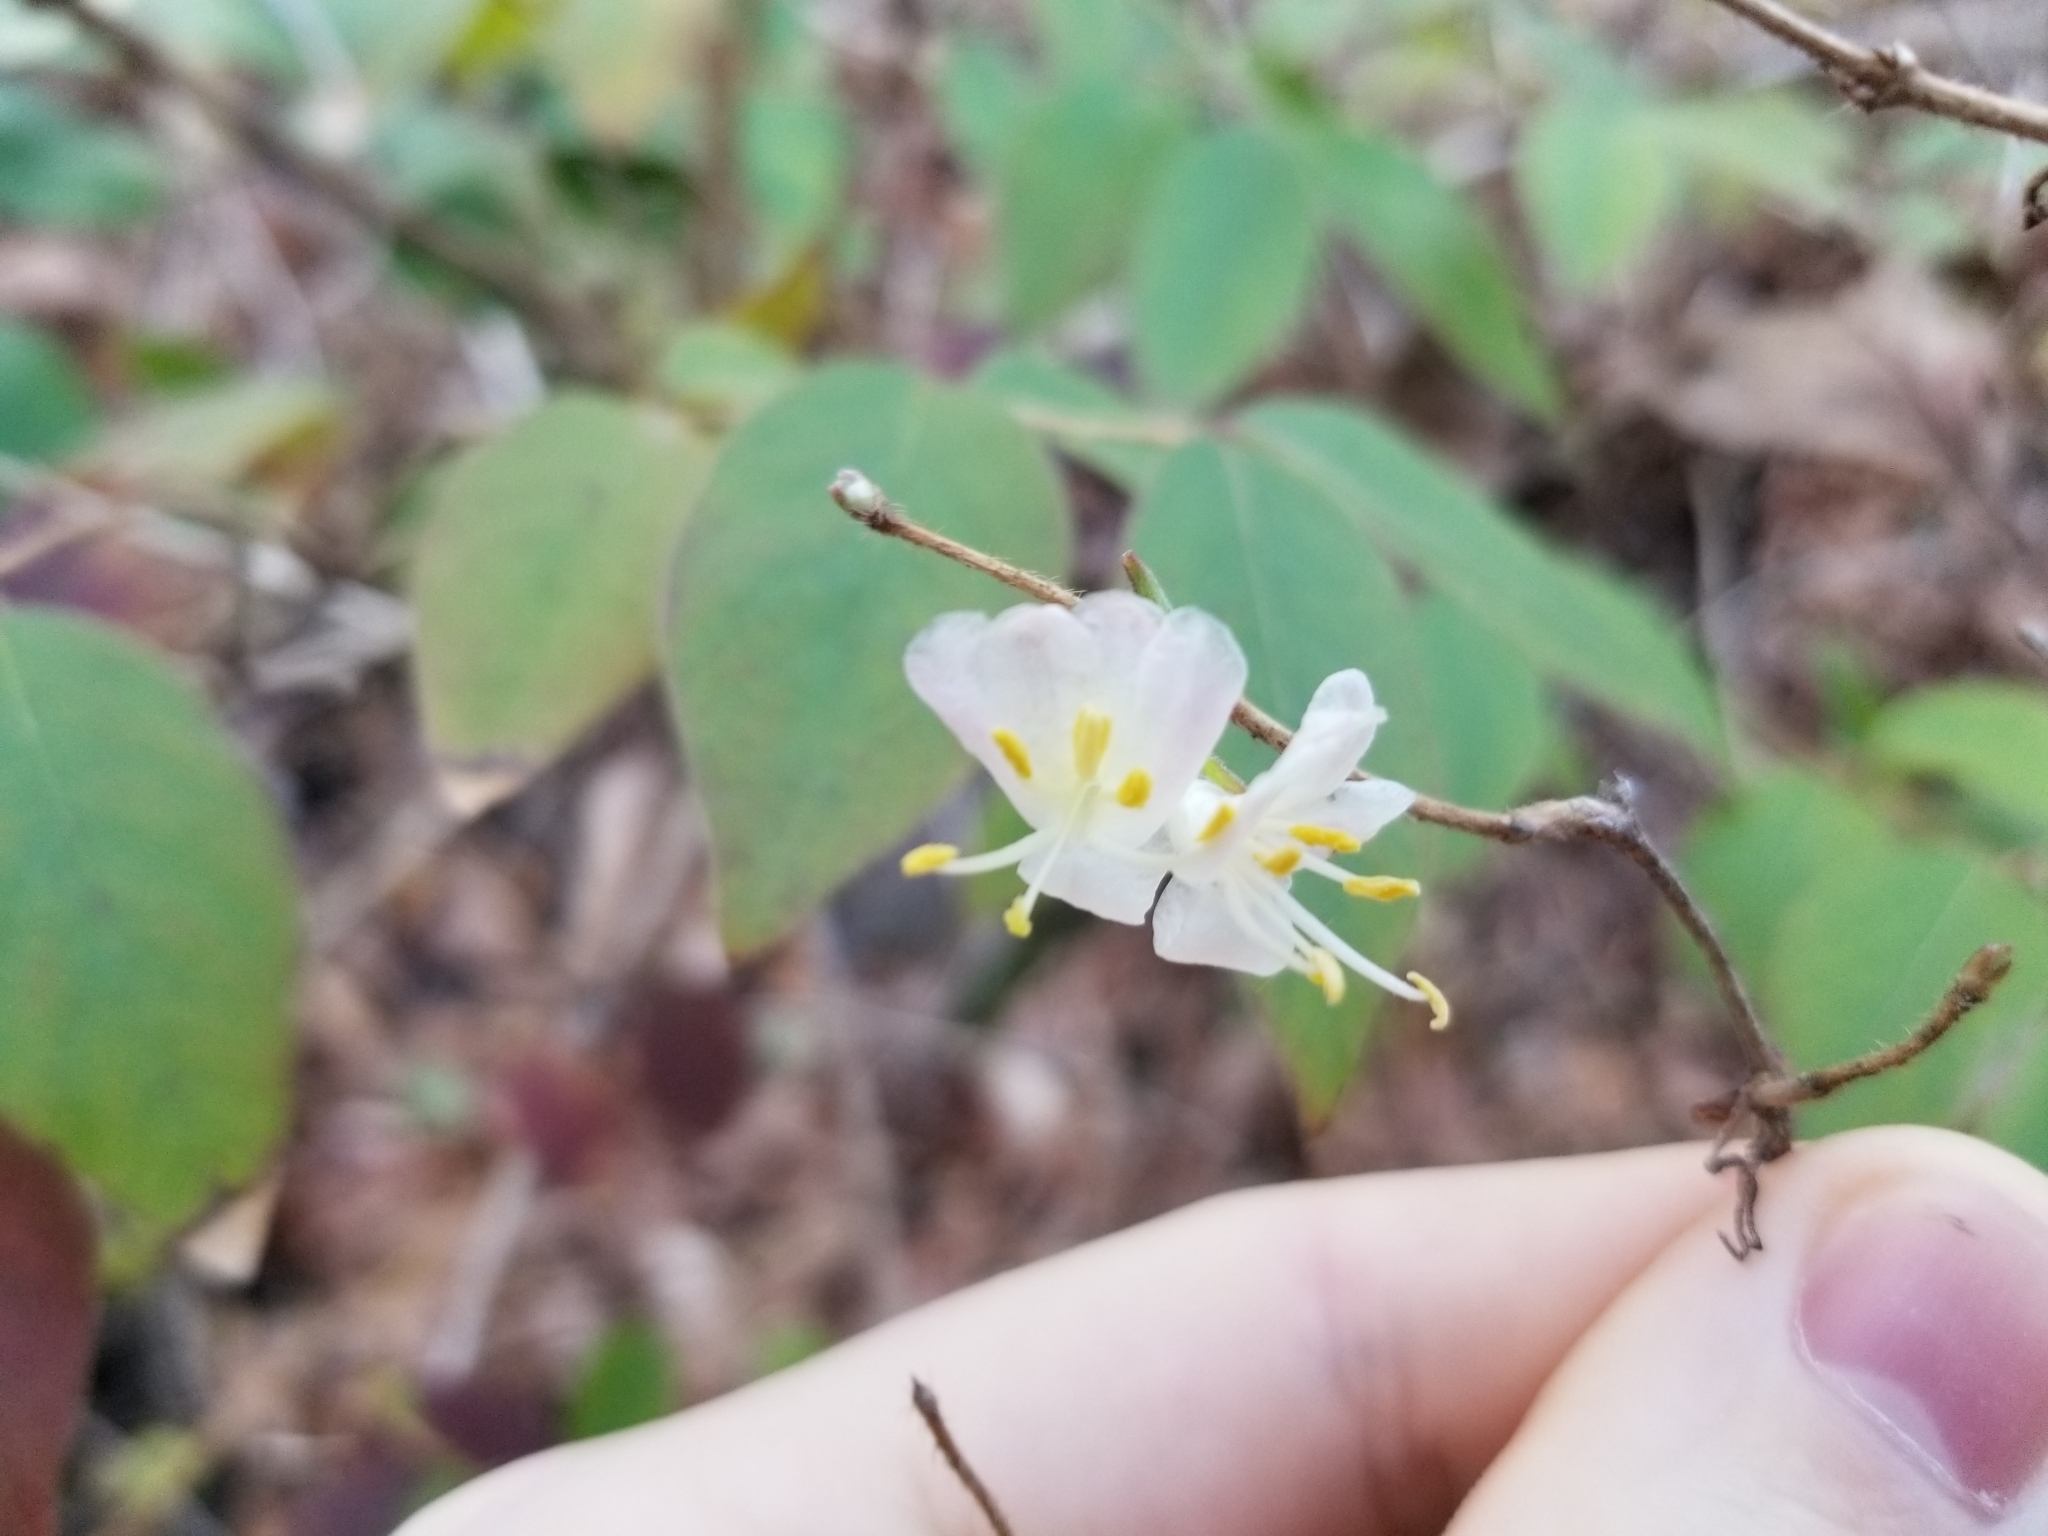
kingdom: Plantae
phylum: Tracheophyta
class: Magnoliopsida
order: Dipsacales
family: Caprifoliaceae
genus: Lonicera
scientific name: Lonicera fragrantissima
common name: Fragrant honeysuckle
